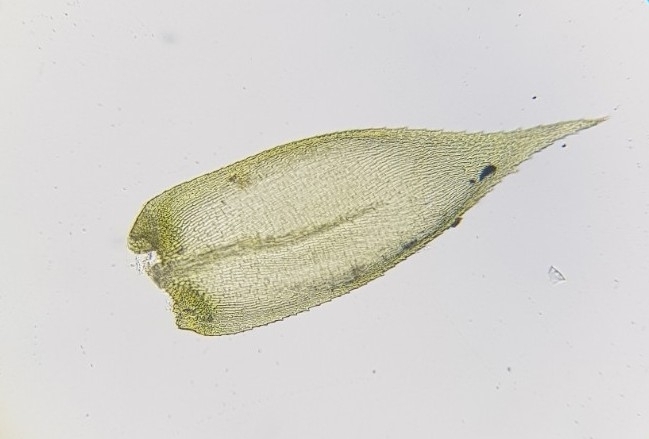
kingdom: Plantae
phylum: Bryophyta
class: Bryopsida
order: Hypnales
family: Lembophyllaceae
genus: Pseudisothecium
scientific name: Pseudisothecium myosuroides
